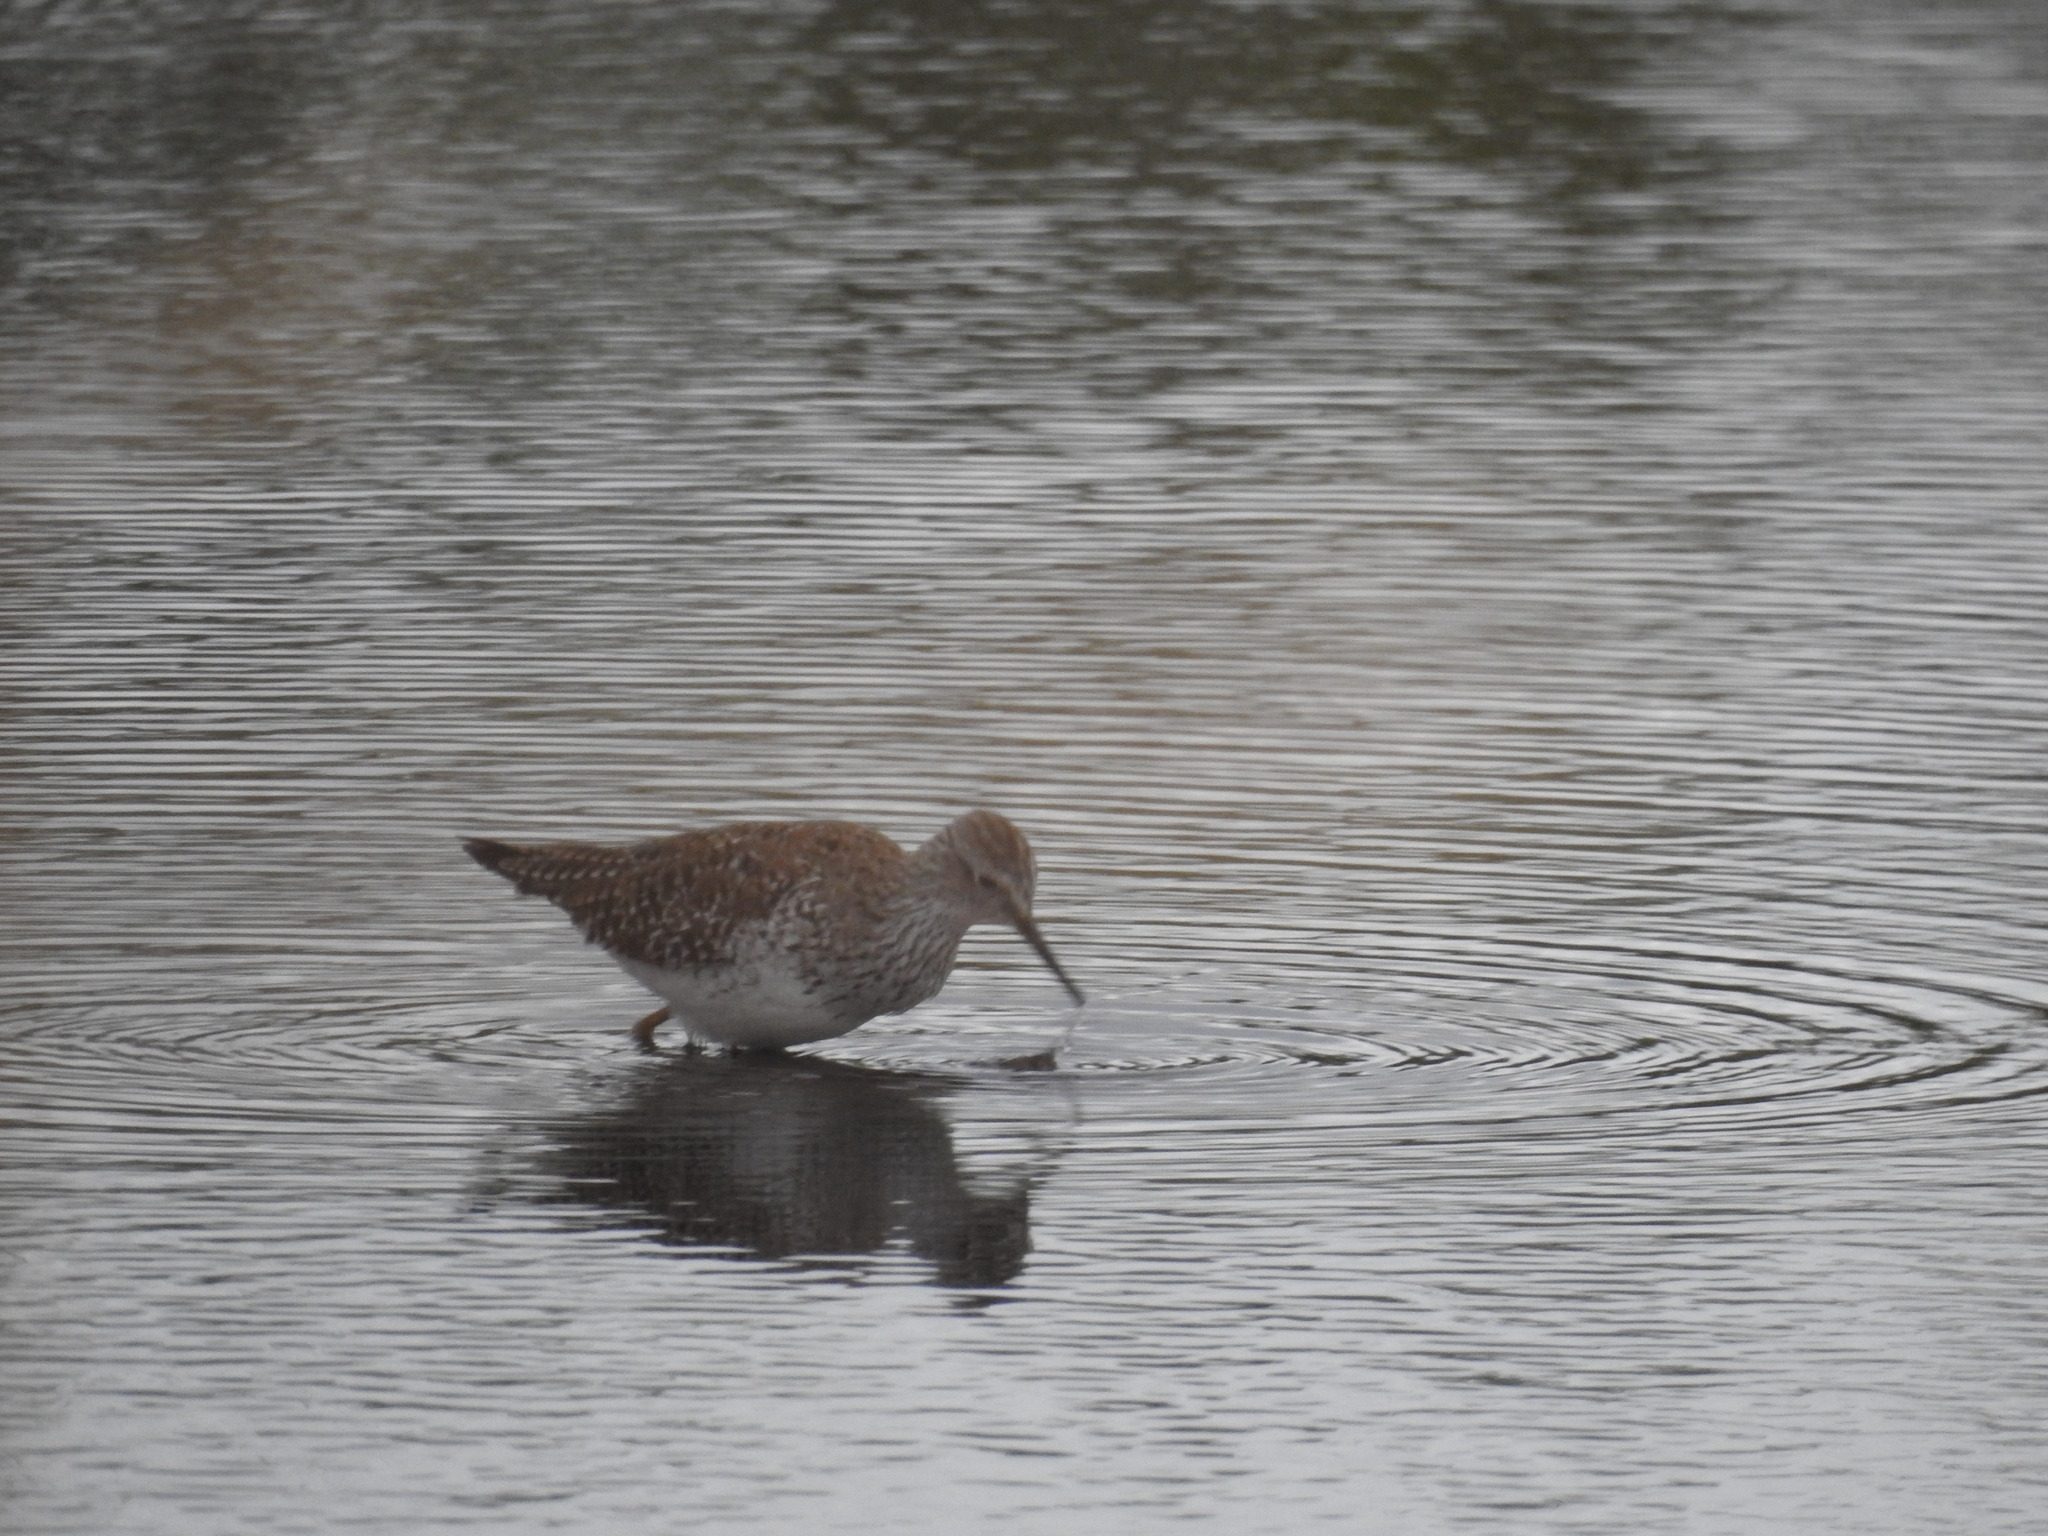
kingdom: Animalia
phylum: Chordata
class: Aves
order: Charadriiformes
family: Scolopacidae
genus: Tringa
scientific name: Tringa flavipes
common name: Lesser yellowlegs
